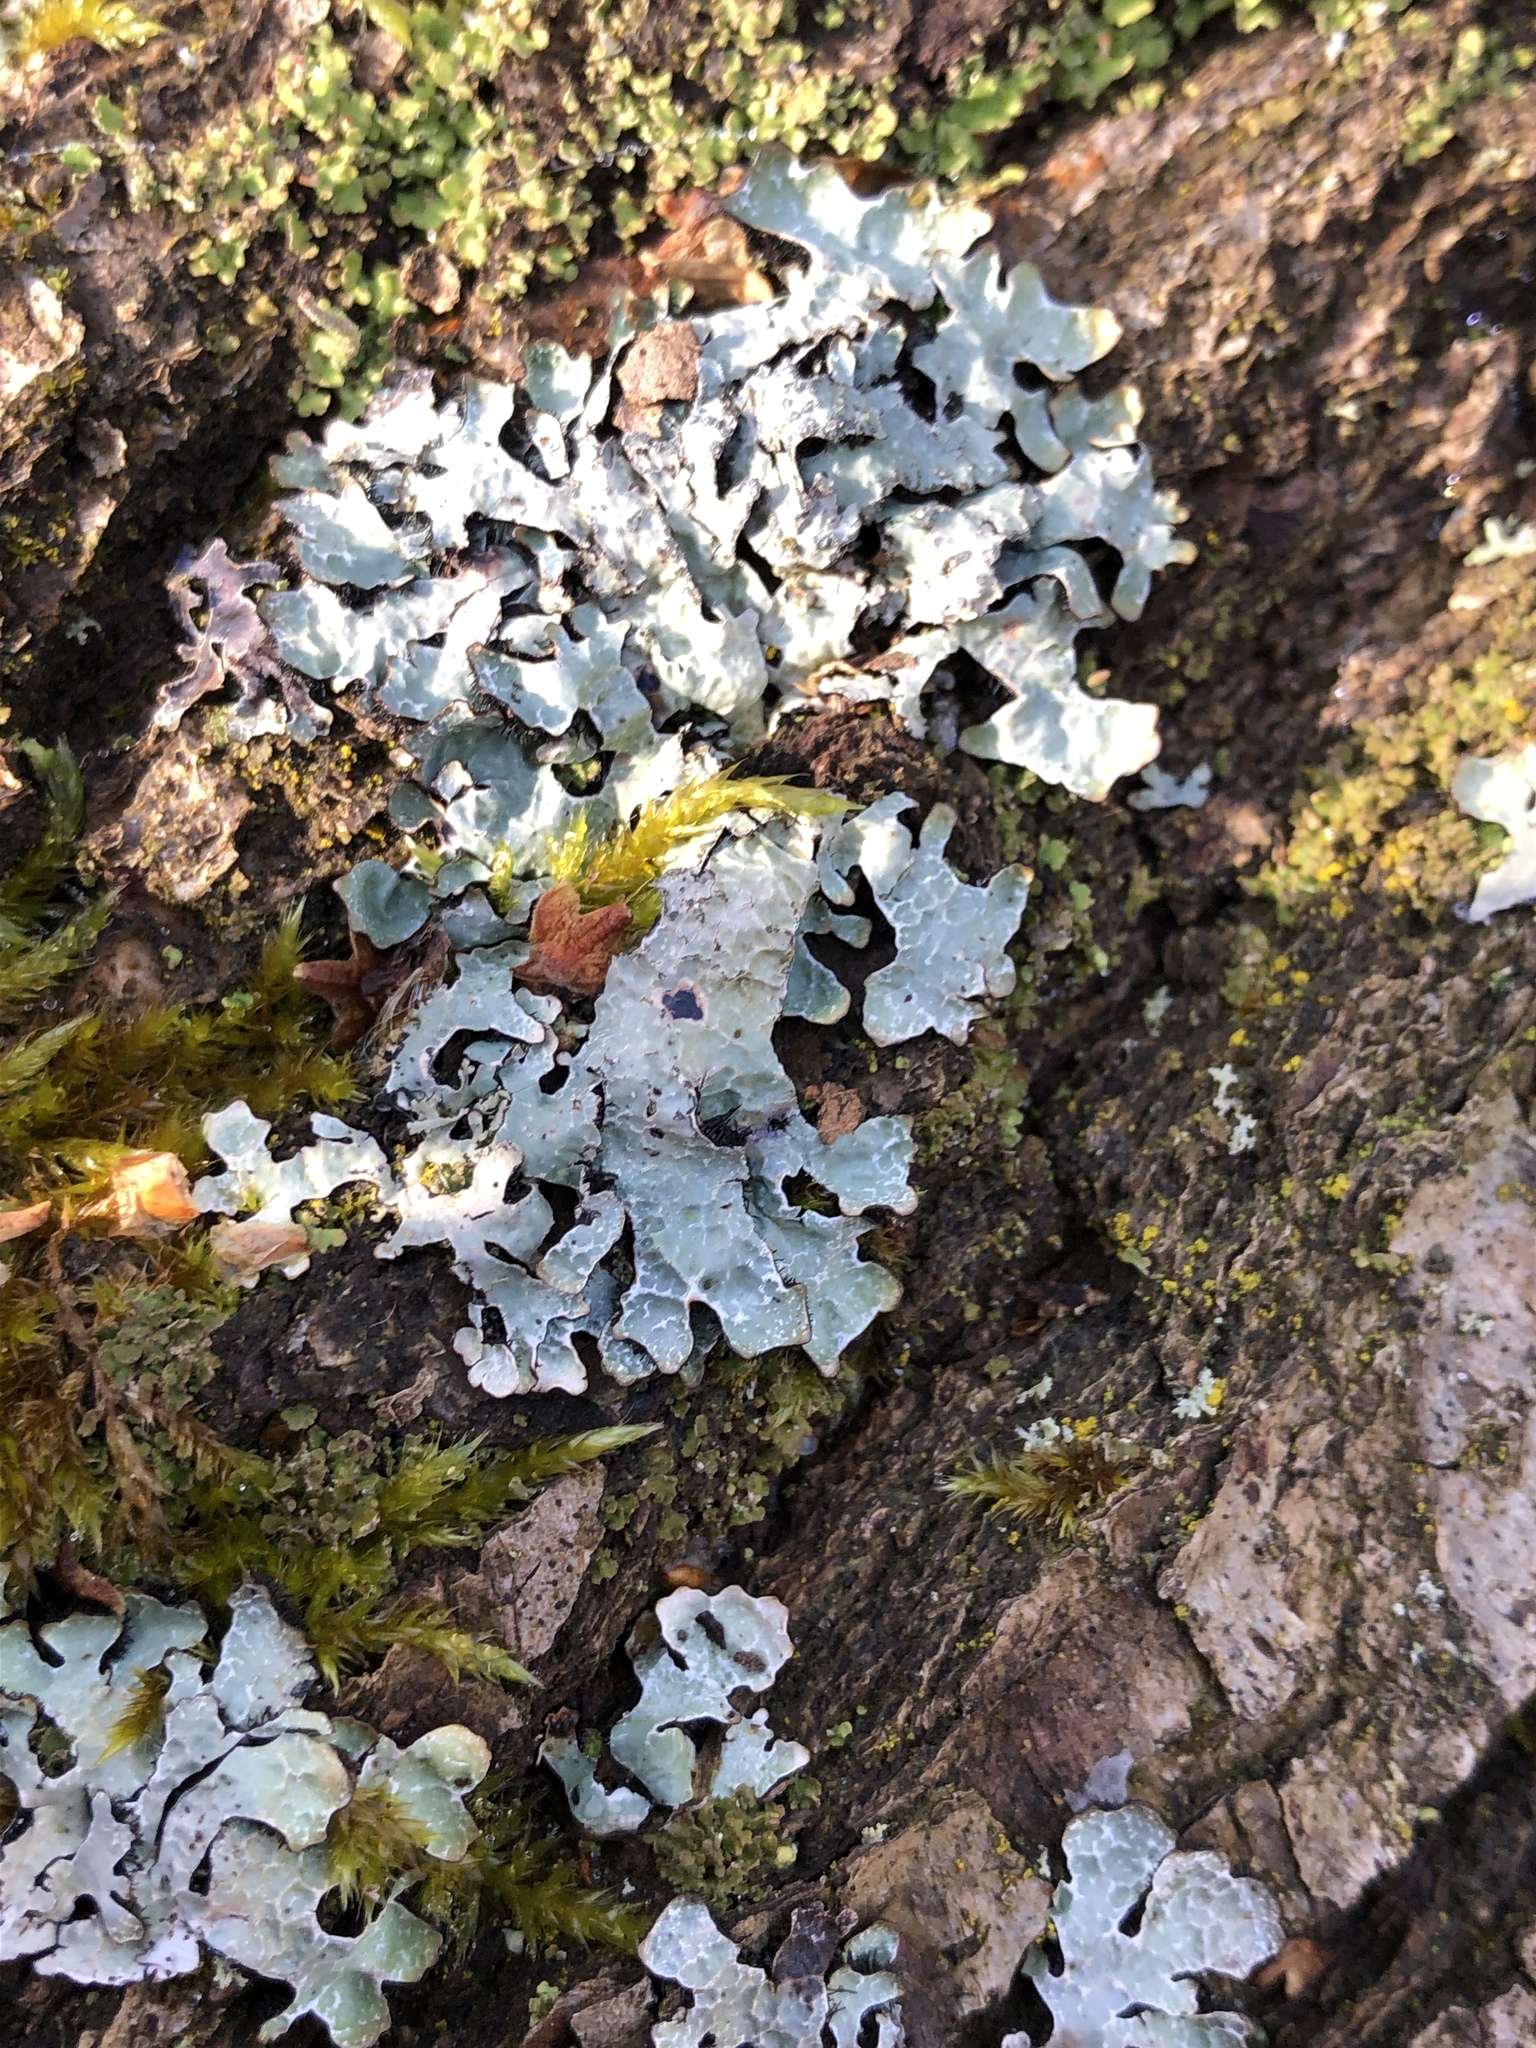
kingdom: Fungi
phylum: Ascomycota
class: Lecanoromycetes
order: Lecanorales
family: Parmeliaceae
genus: Parmelia
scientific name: Parmelia sulcata
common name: Netted shield lichen
